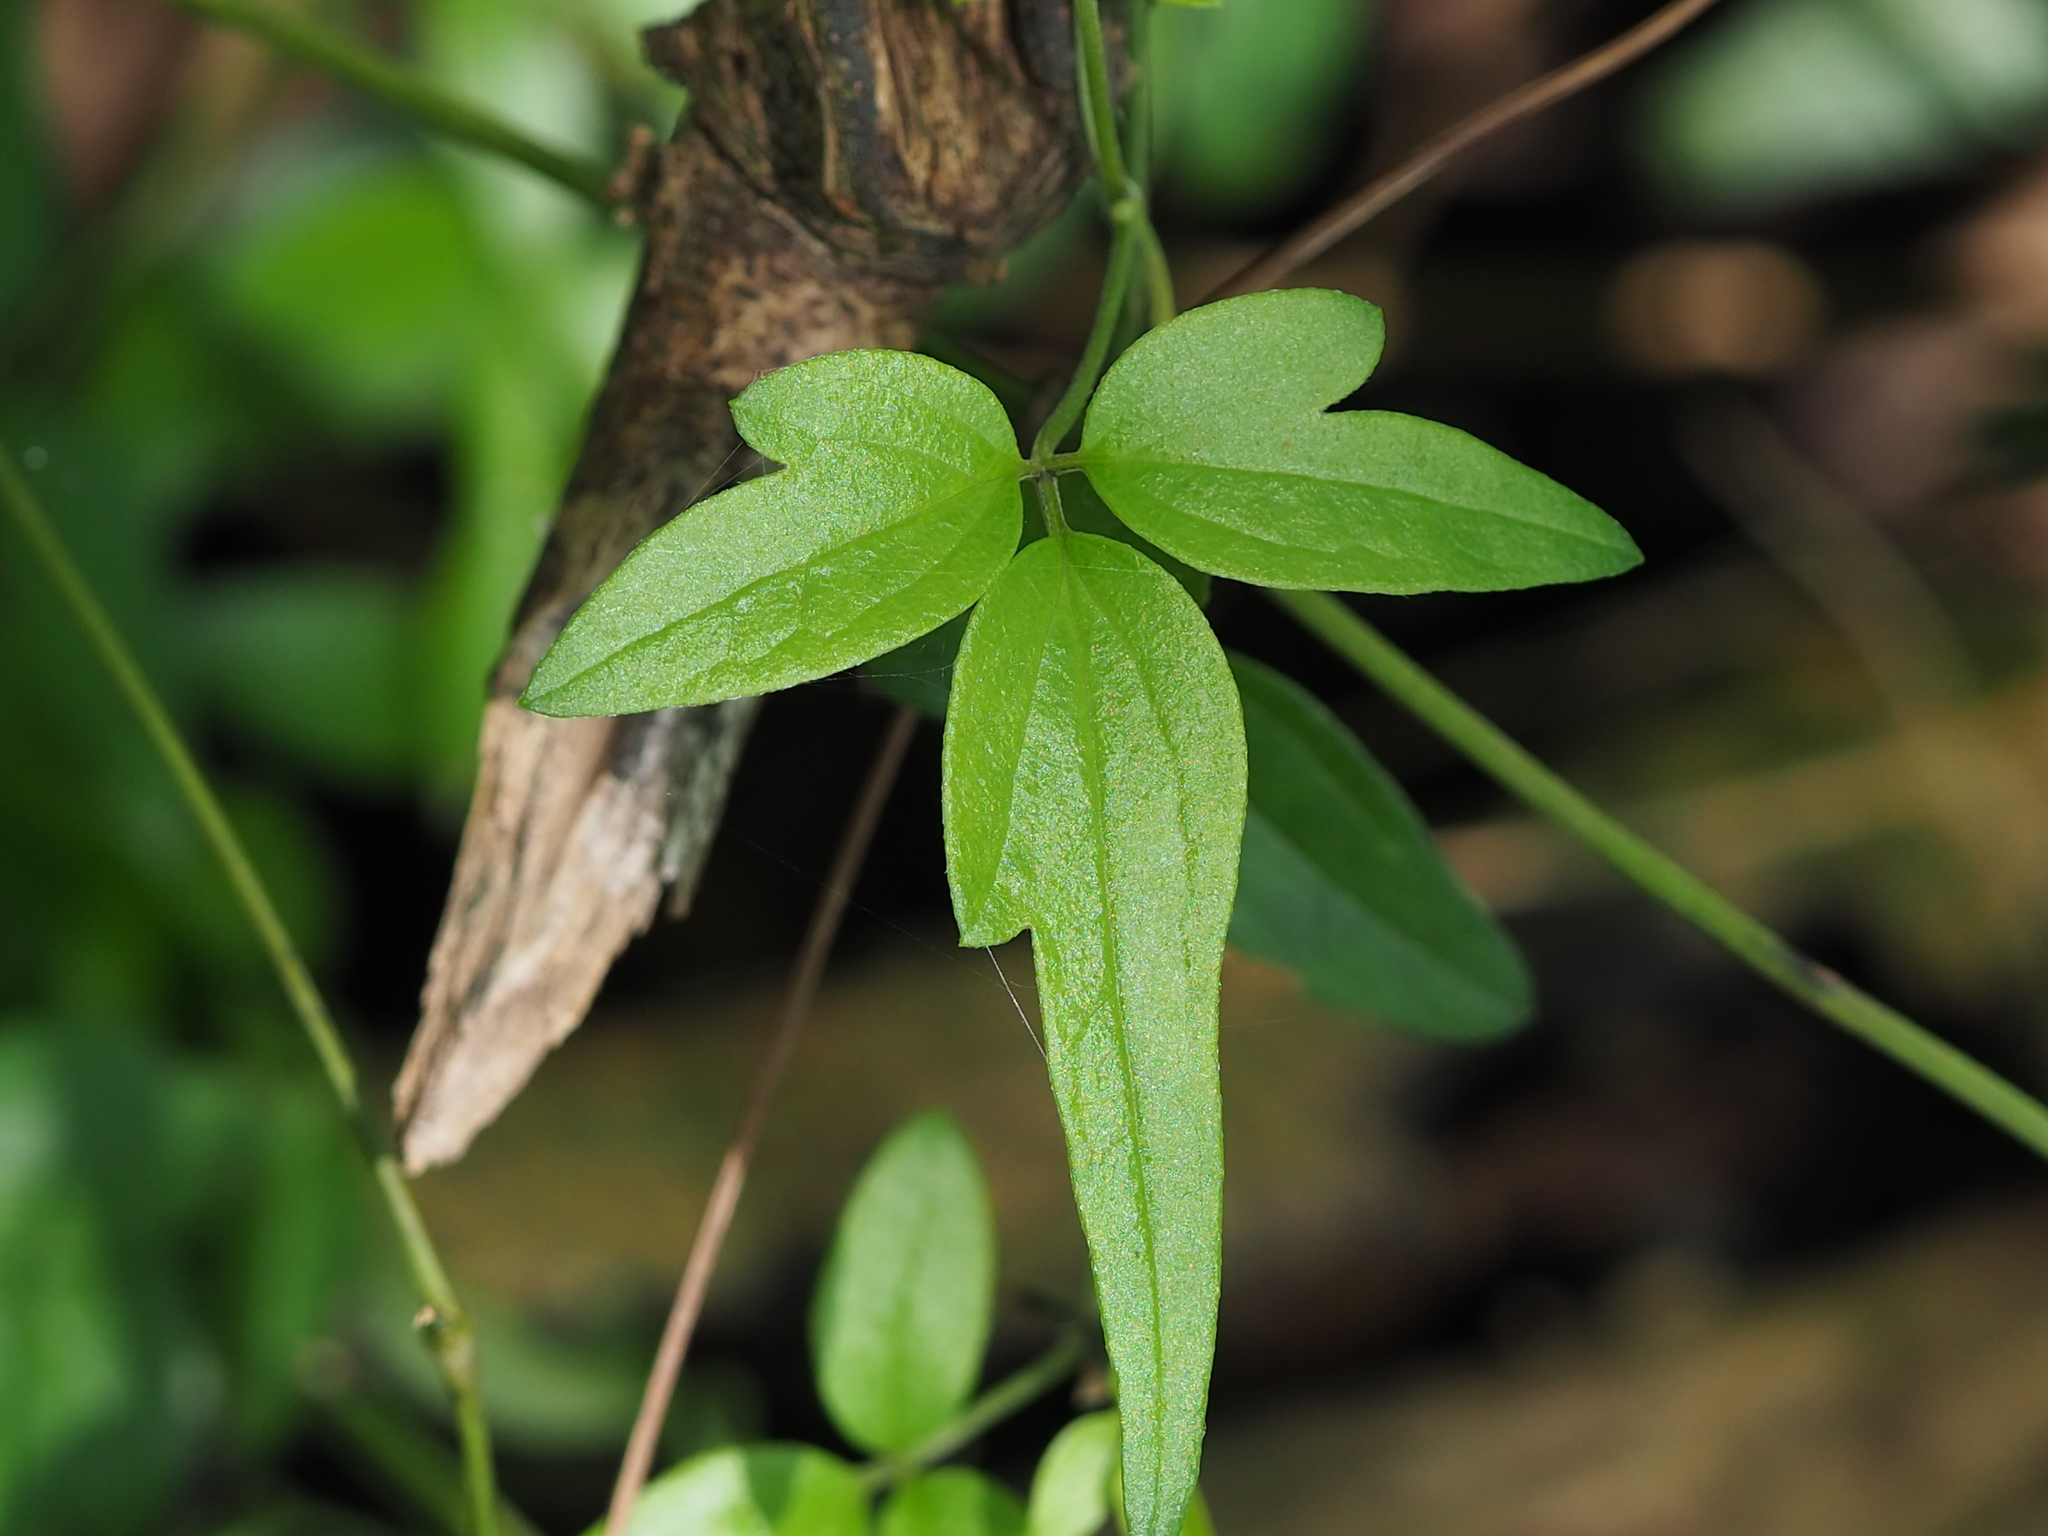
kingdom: Plantae
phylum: Tracheophyta
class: Magnoliopsida
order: Ranunculales
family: Ranunculaceae
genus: Clematis
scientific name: Clematis formosana
